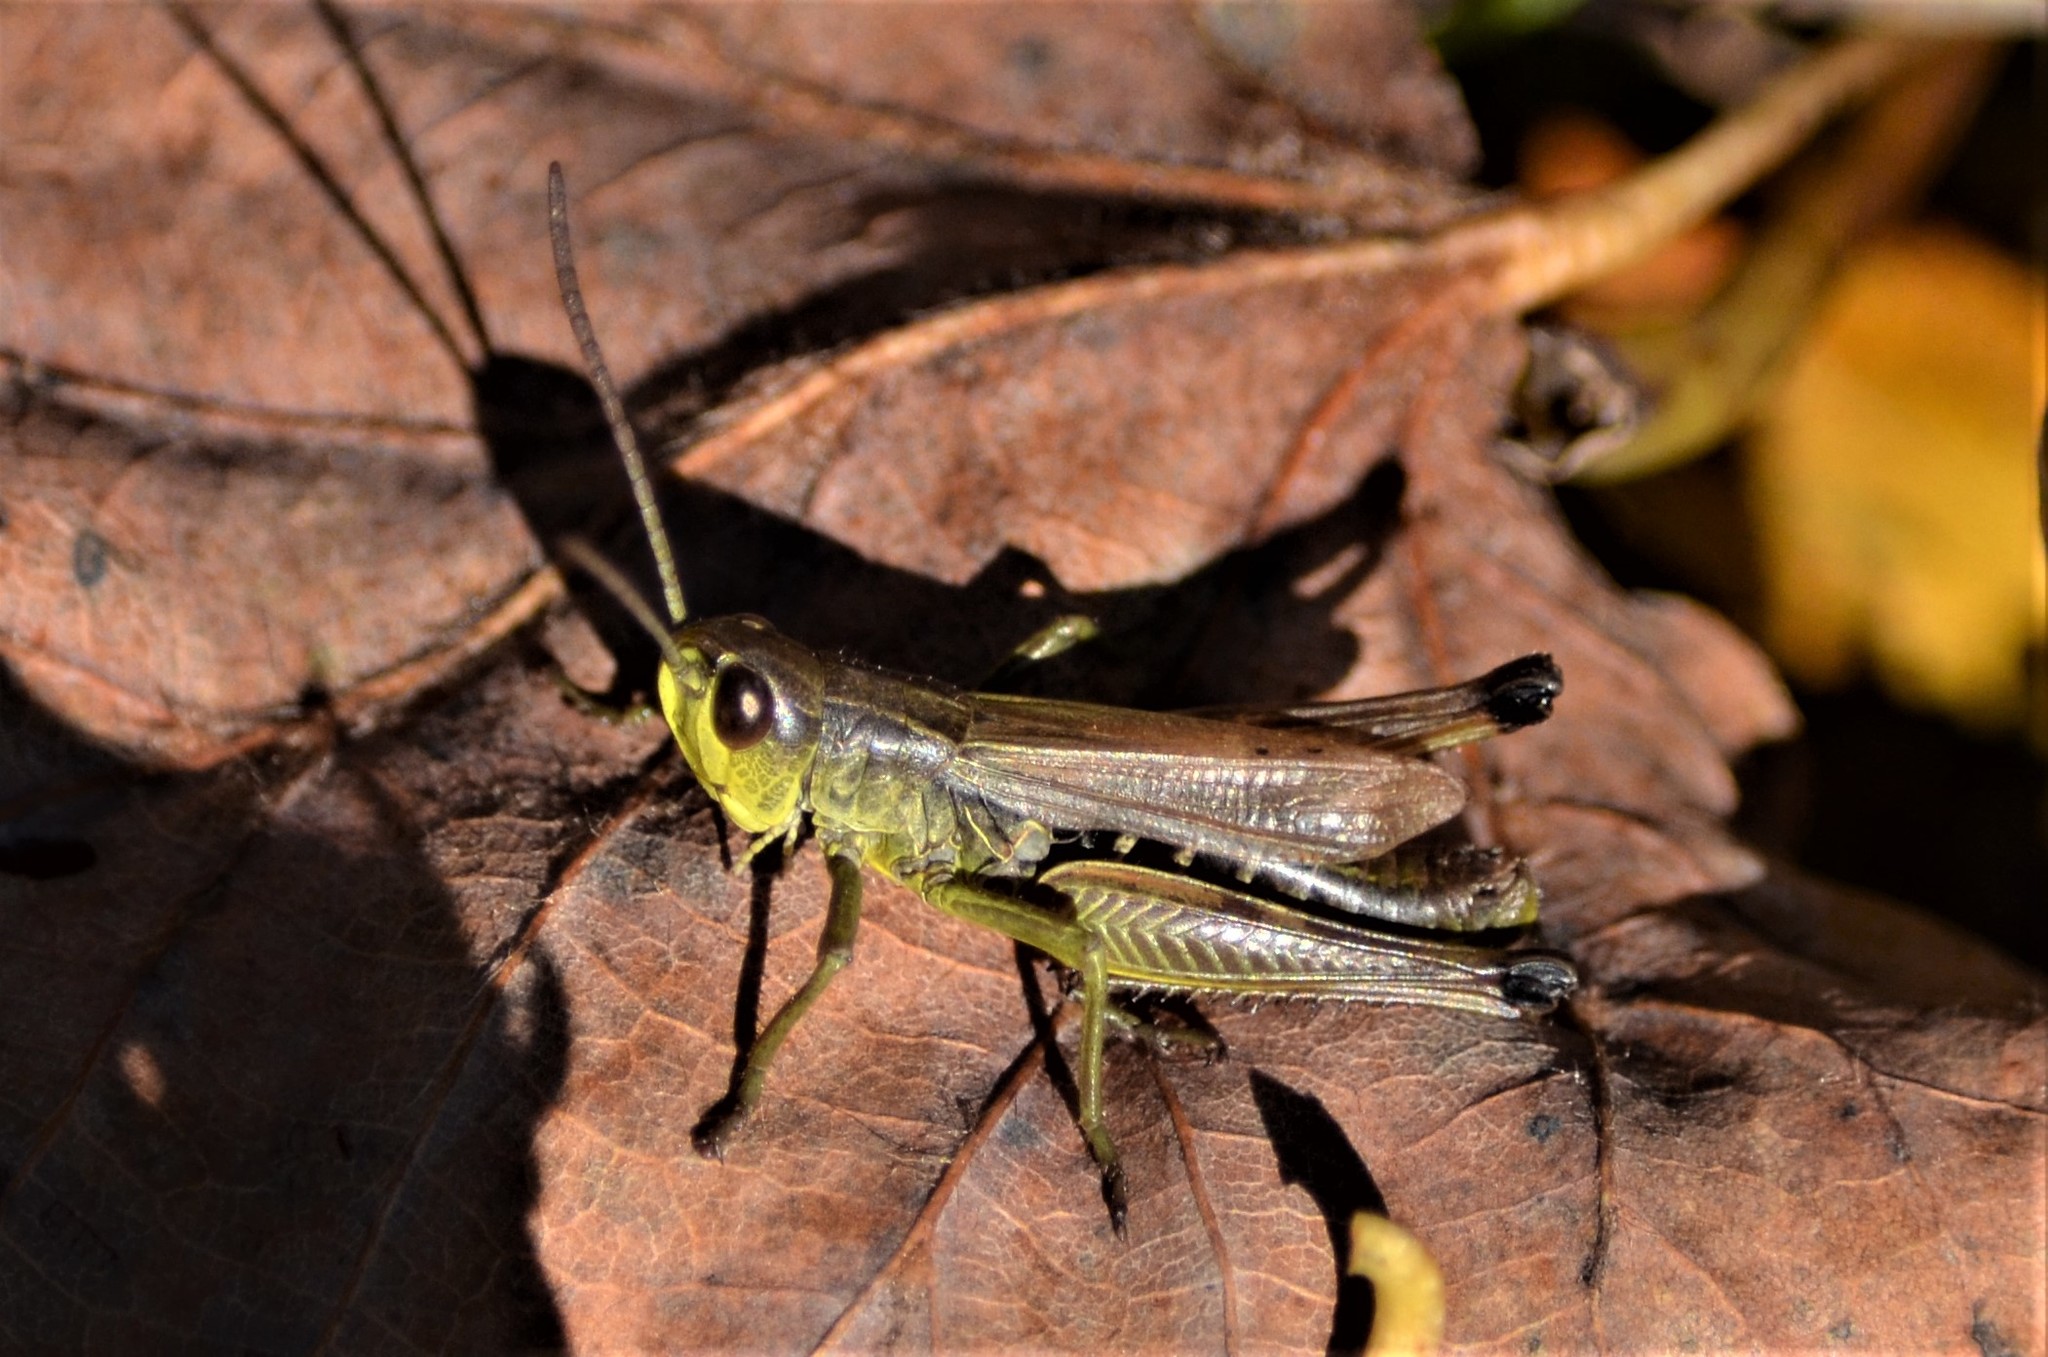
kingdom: Animalia
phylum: Arthropoda
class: Insecta
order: Orthoptera
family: Acrididae
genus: Pseudochorthippus
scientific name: Pseudochorthippus parallelus
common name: Meadow grasshopper
